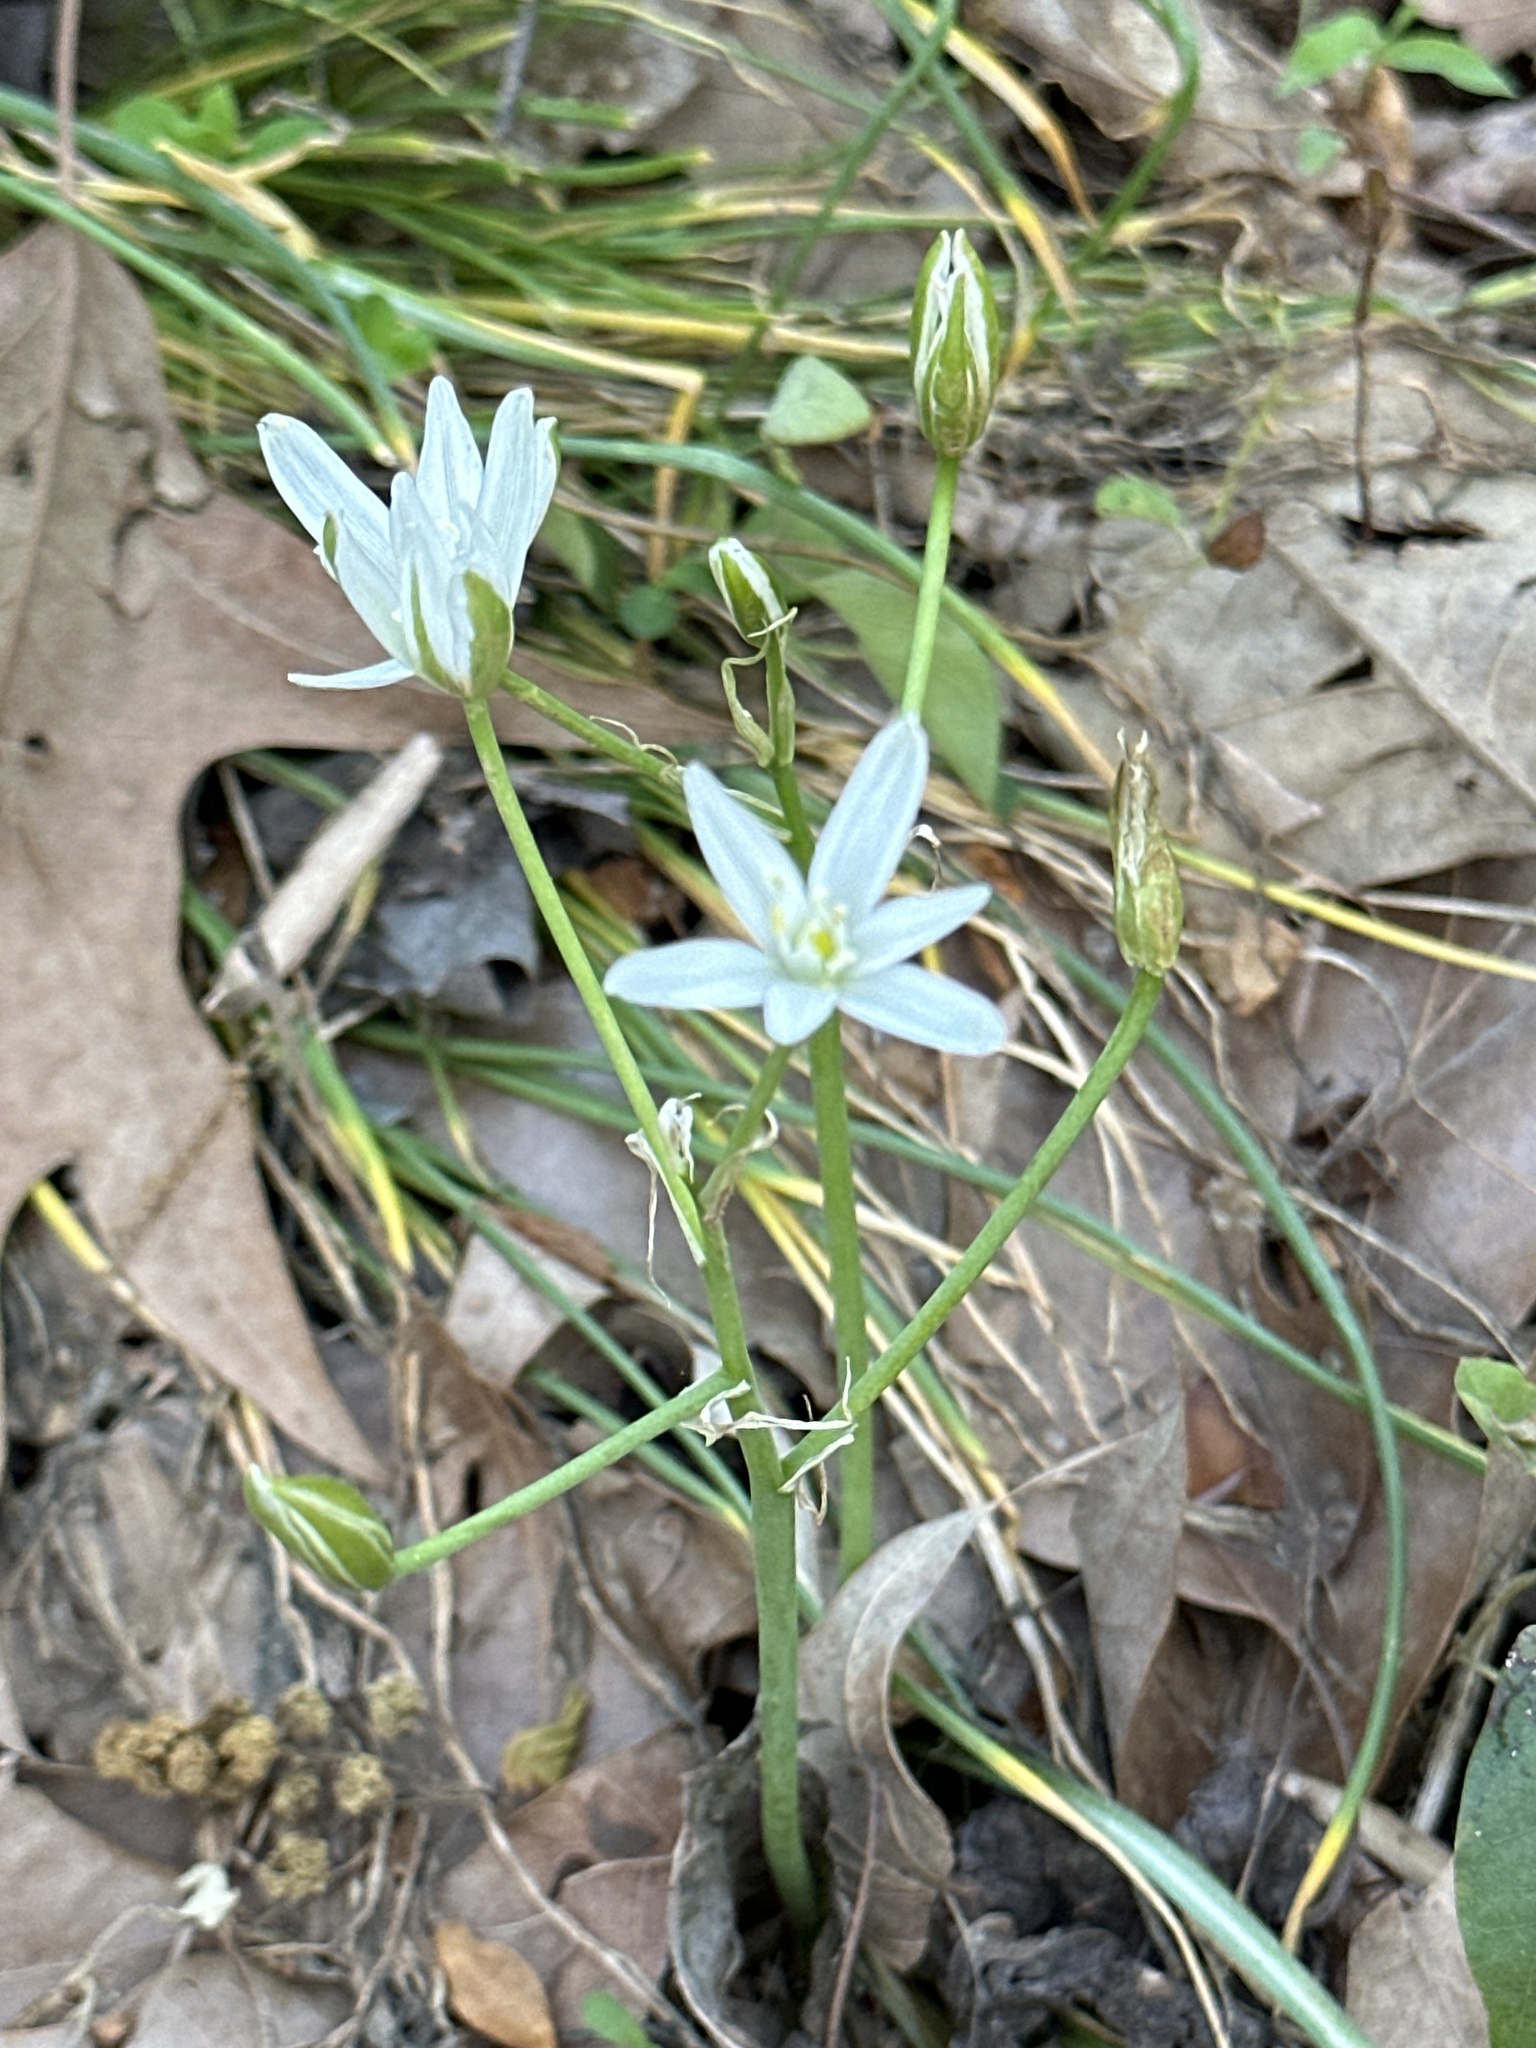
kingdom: Plantae
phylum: Tracheophyta
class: Liliopsida
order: Asparagales
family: Asparagaceae
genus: Ornithogalum
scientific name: Ornithogalum umbellatum
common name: Garden star-of-bethlehem
